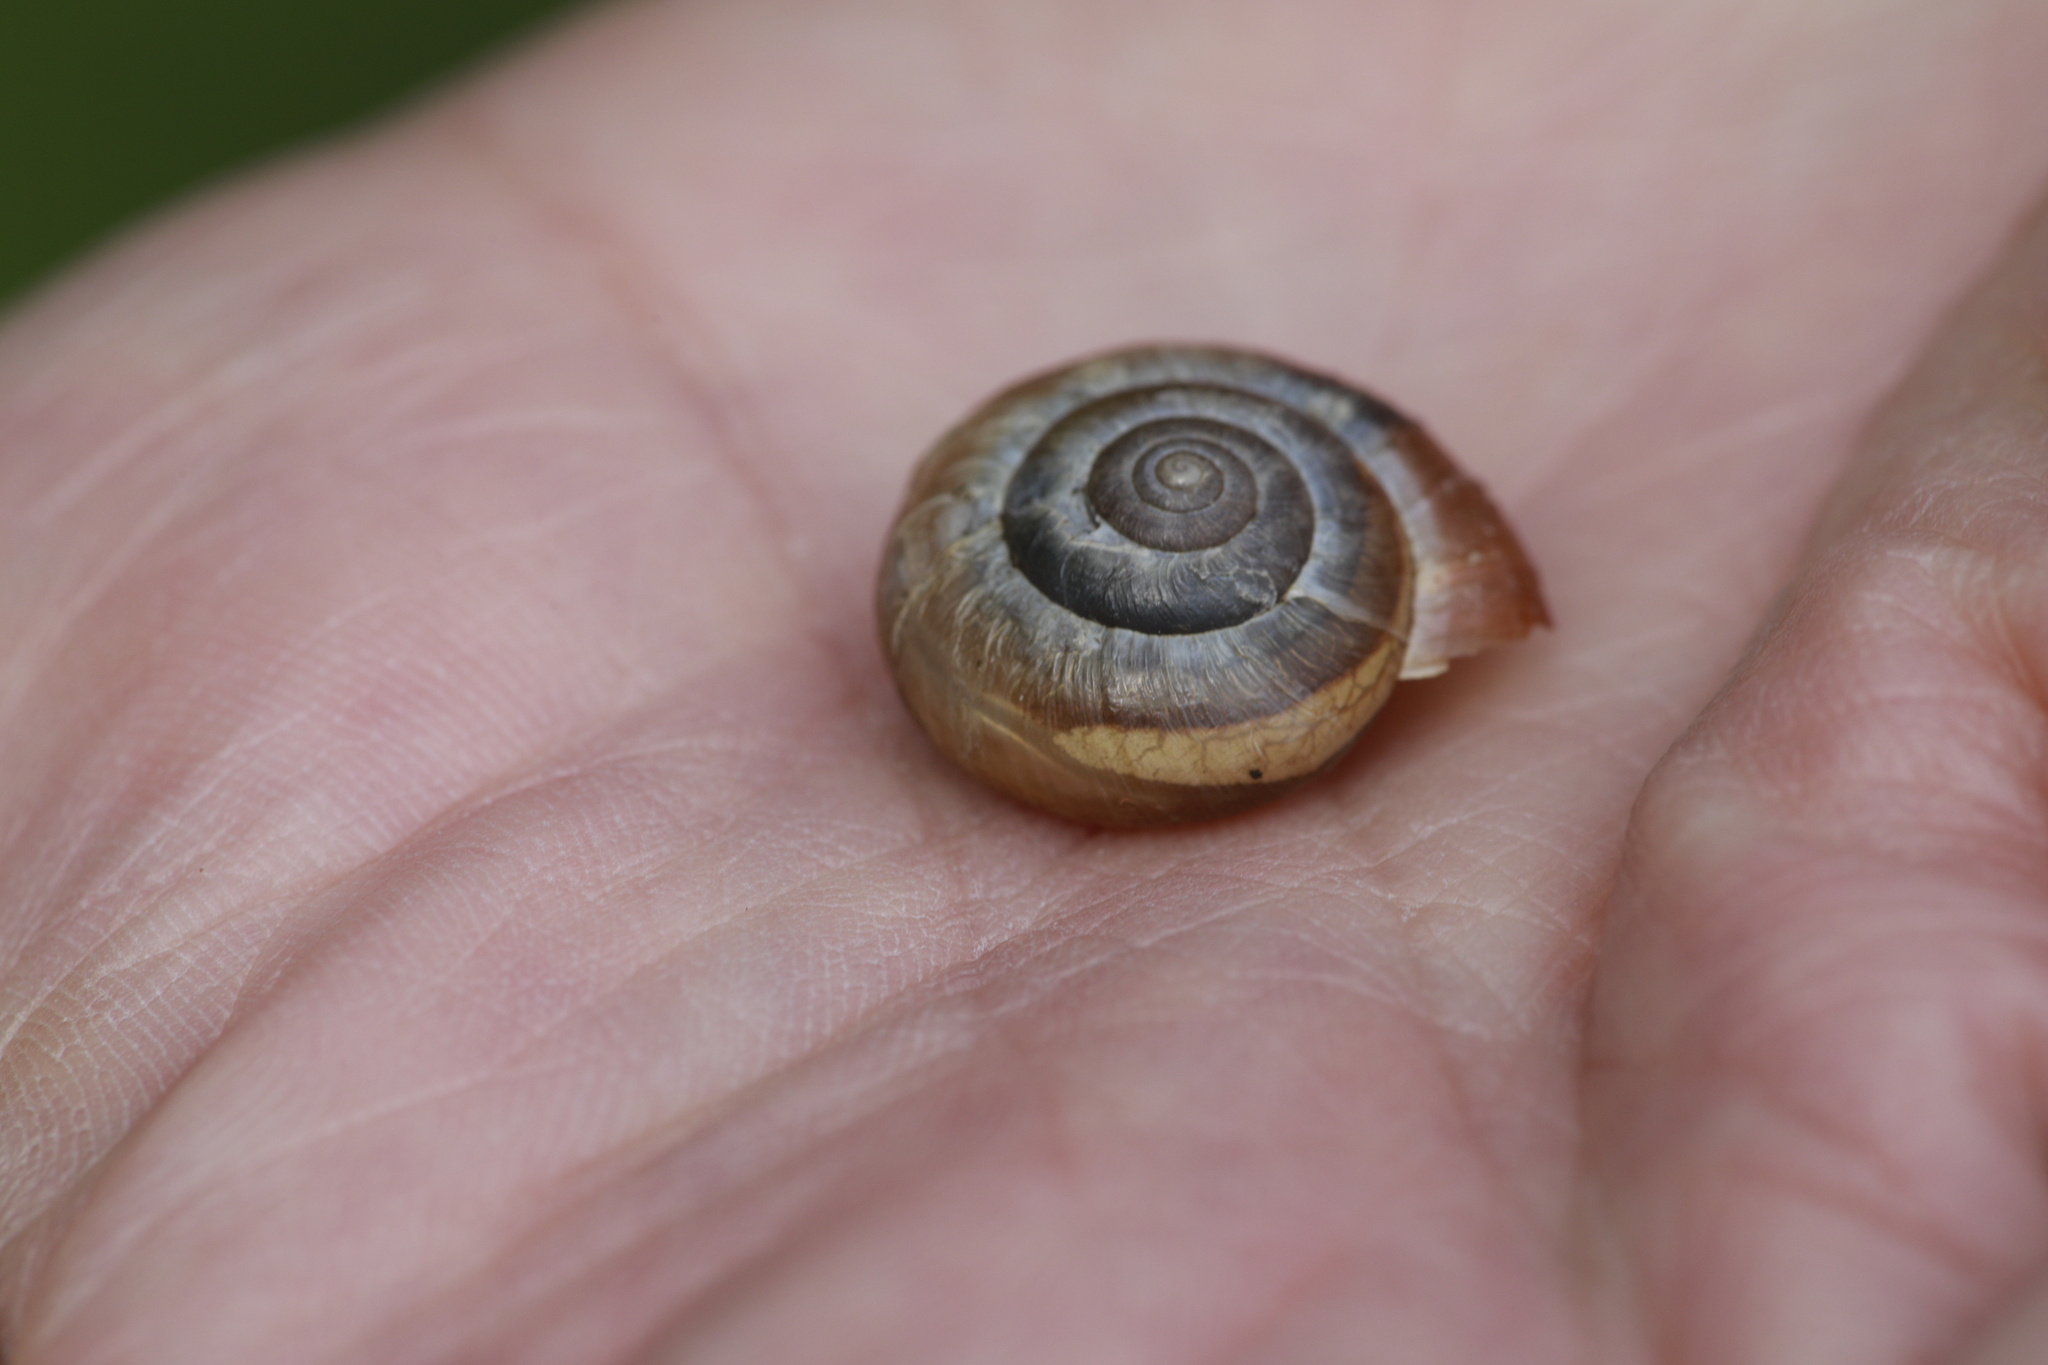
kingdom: Animalia
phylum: Mollusca
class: Gastropoda
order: Stylommatophora
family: Hygromiidae
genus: Monacha
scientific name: Monacha cantiana
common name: Kentish snail
